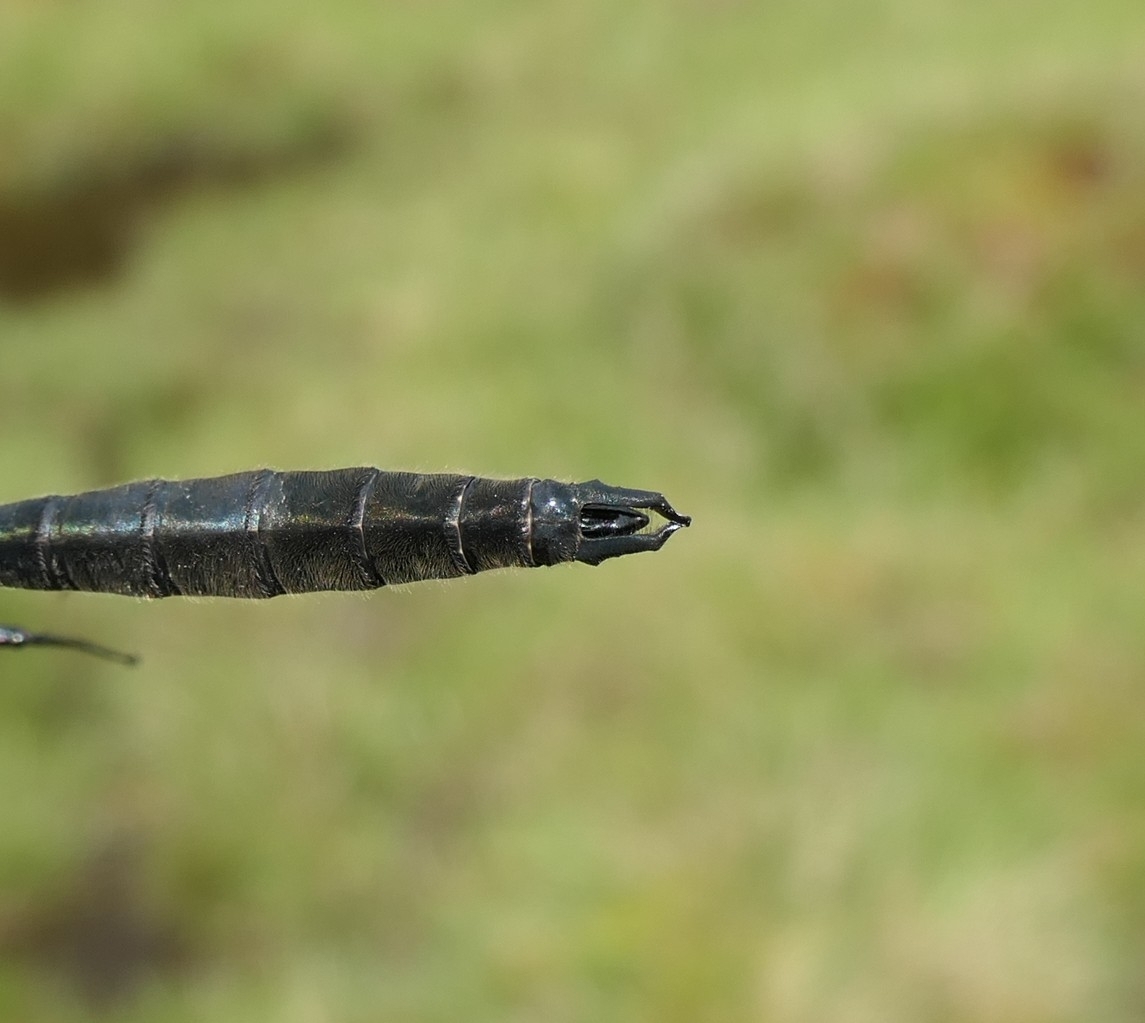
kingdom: Animalia
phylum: Arthropoda
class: Insecta
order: Odonata
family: Corduliidae
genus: Somatochlora
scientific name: Somatochlora alpestris
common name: Alpine emerald
